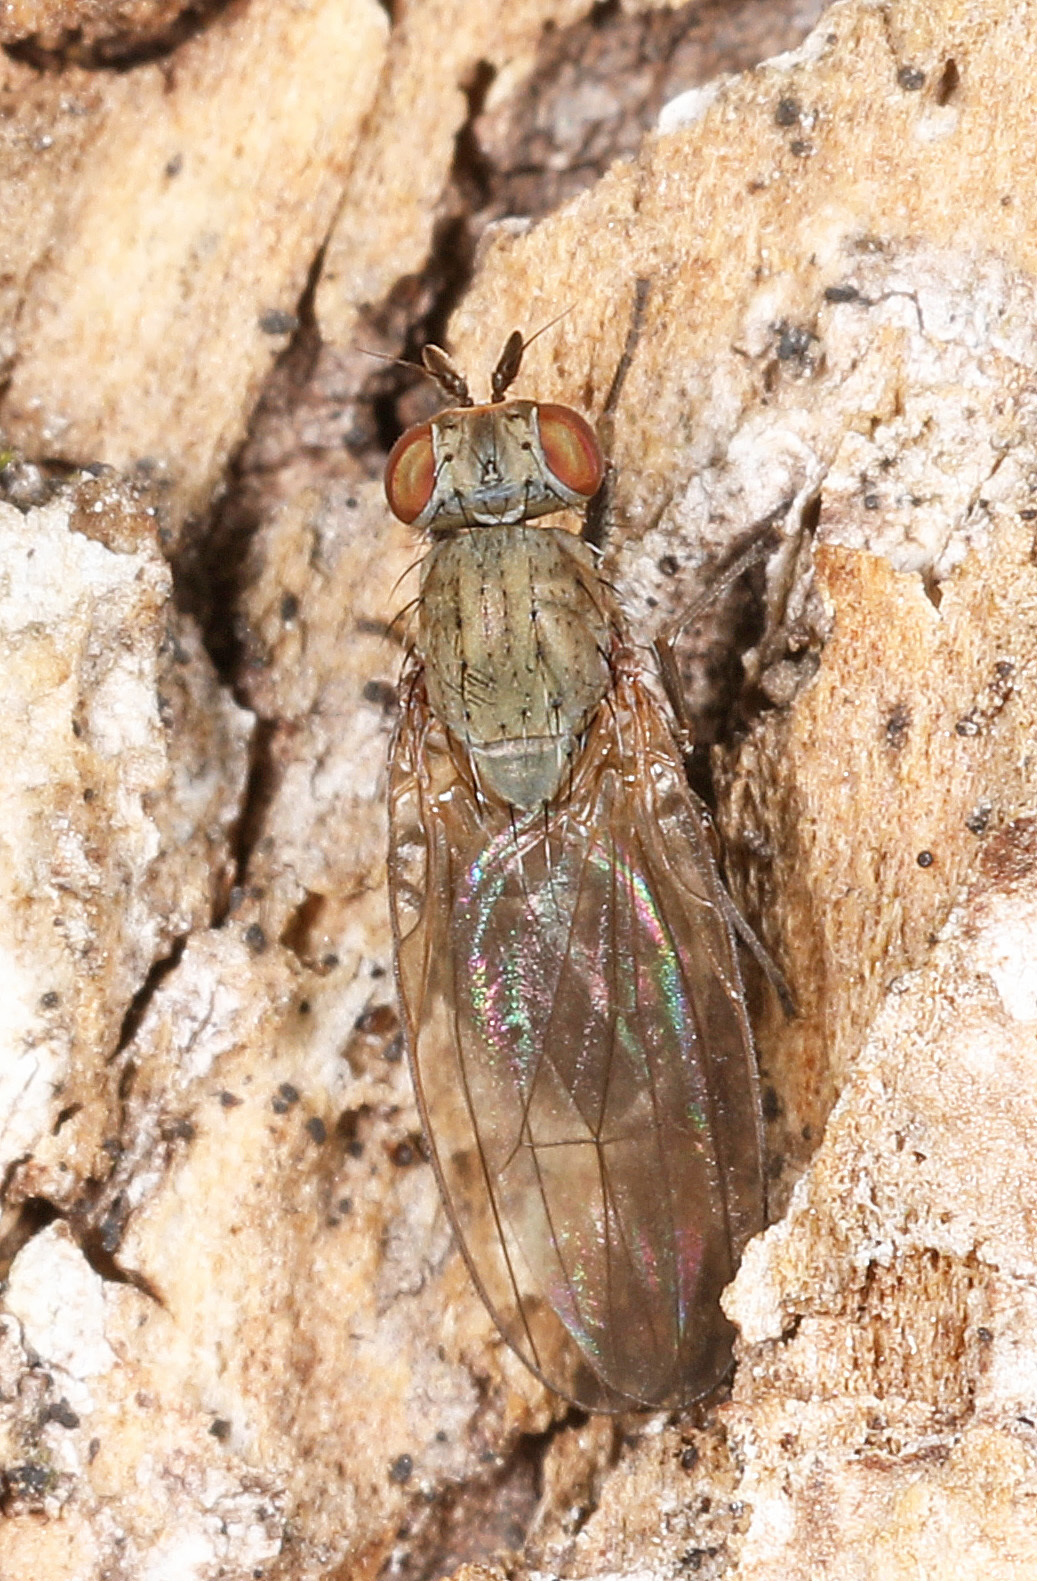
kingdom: Animalia
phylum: Arthropoda
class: Insecta
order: Diptera
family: Lauxaniidae
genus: Sapromyza
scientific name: Sapromyza brachysoma
